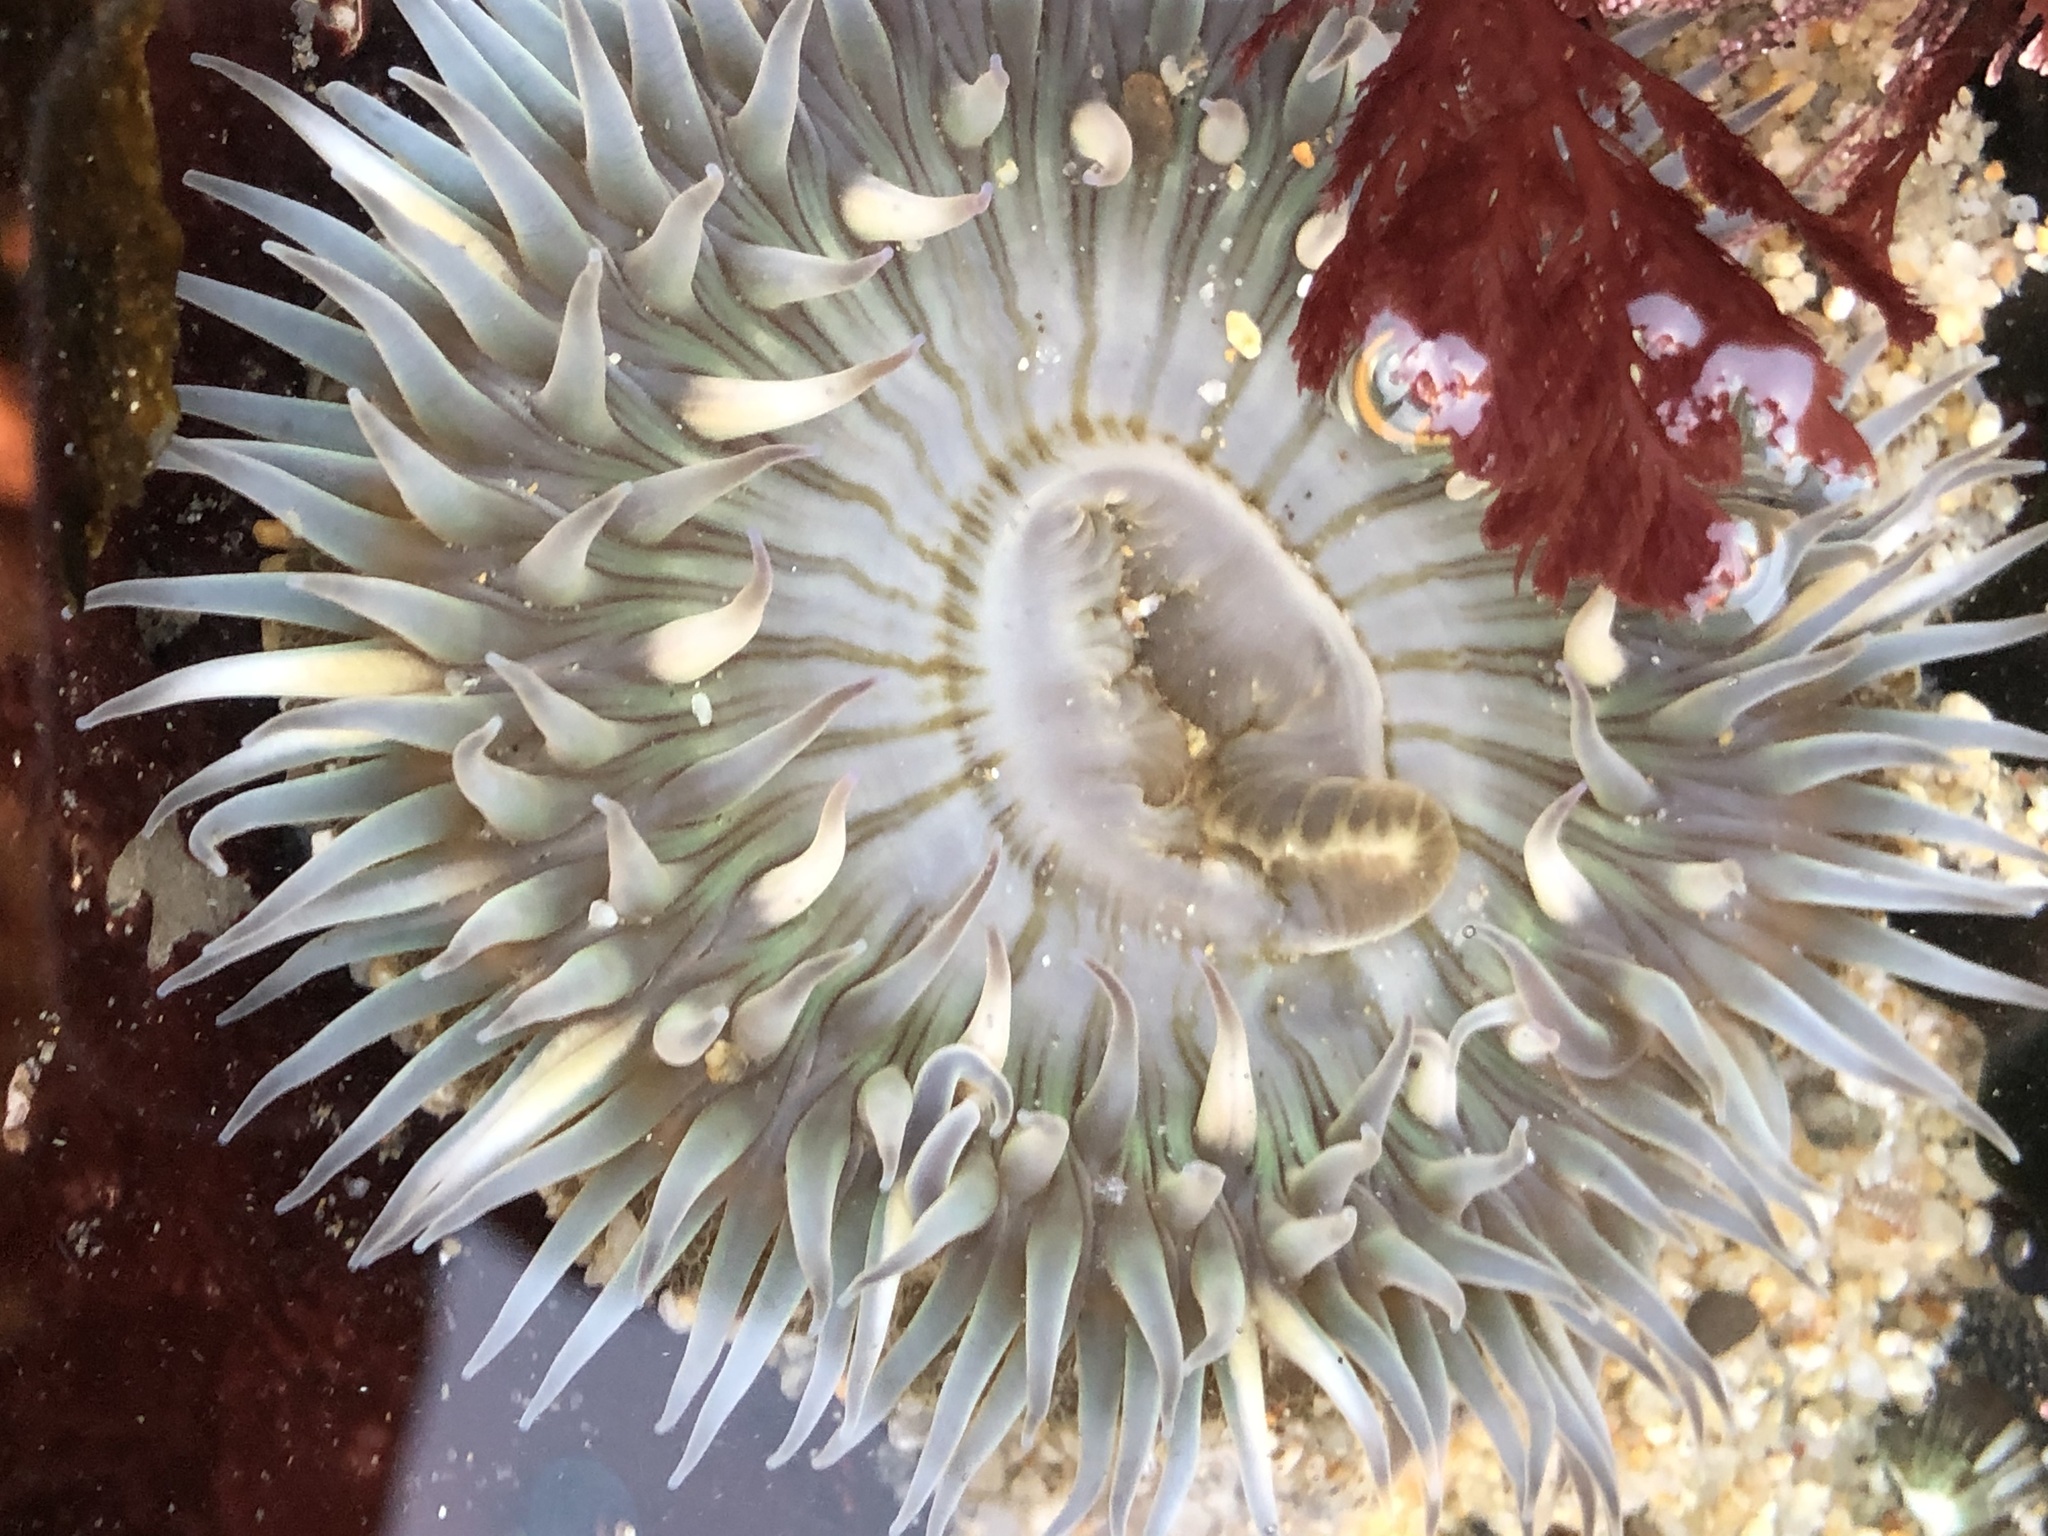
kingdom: Animalia
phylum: Cnidaria
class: Anthozoa
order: Actiniaria
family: Actiniidae
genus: Anthopleura
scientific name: Anthopleura sola
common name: Sun anemone
